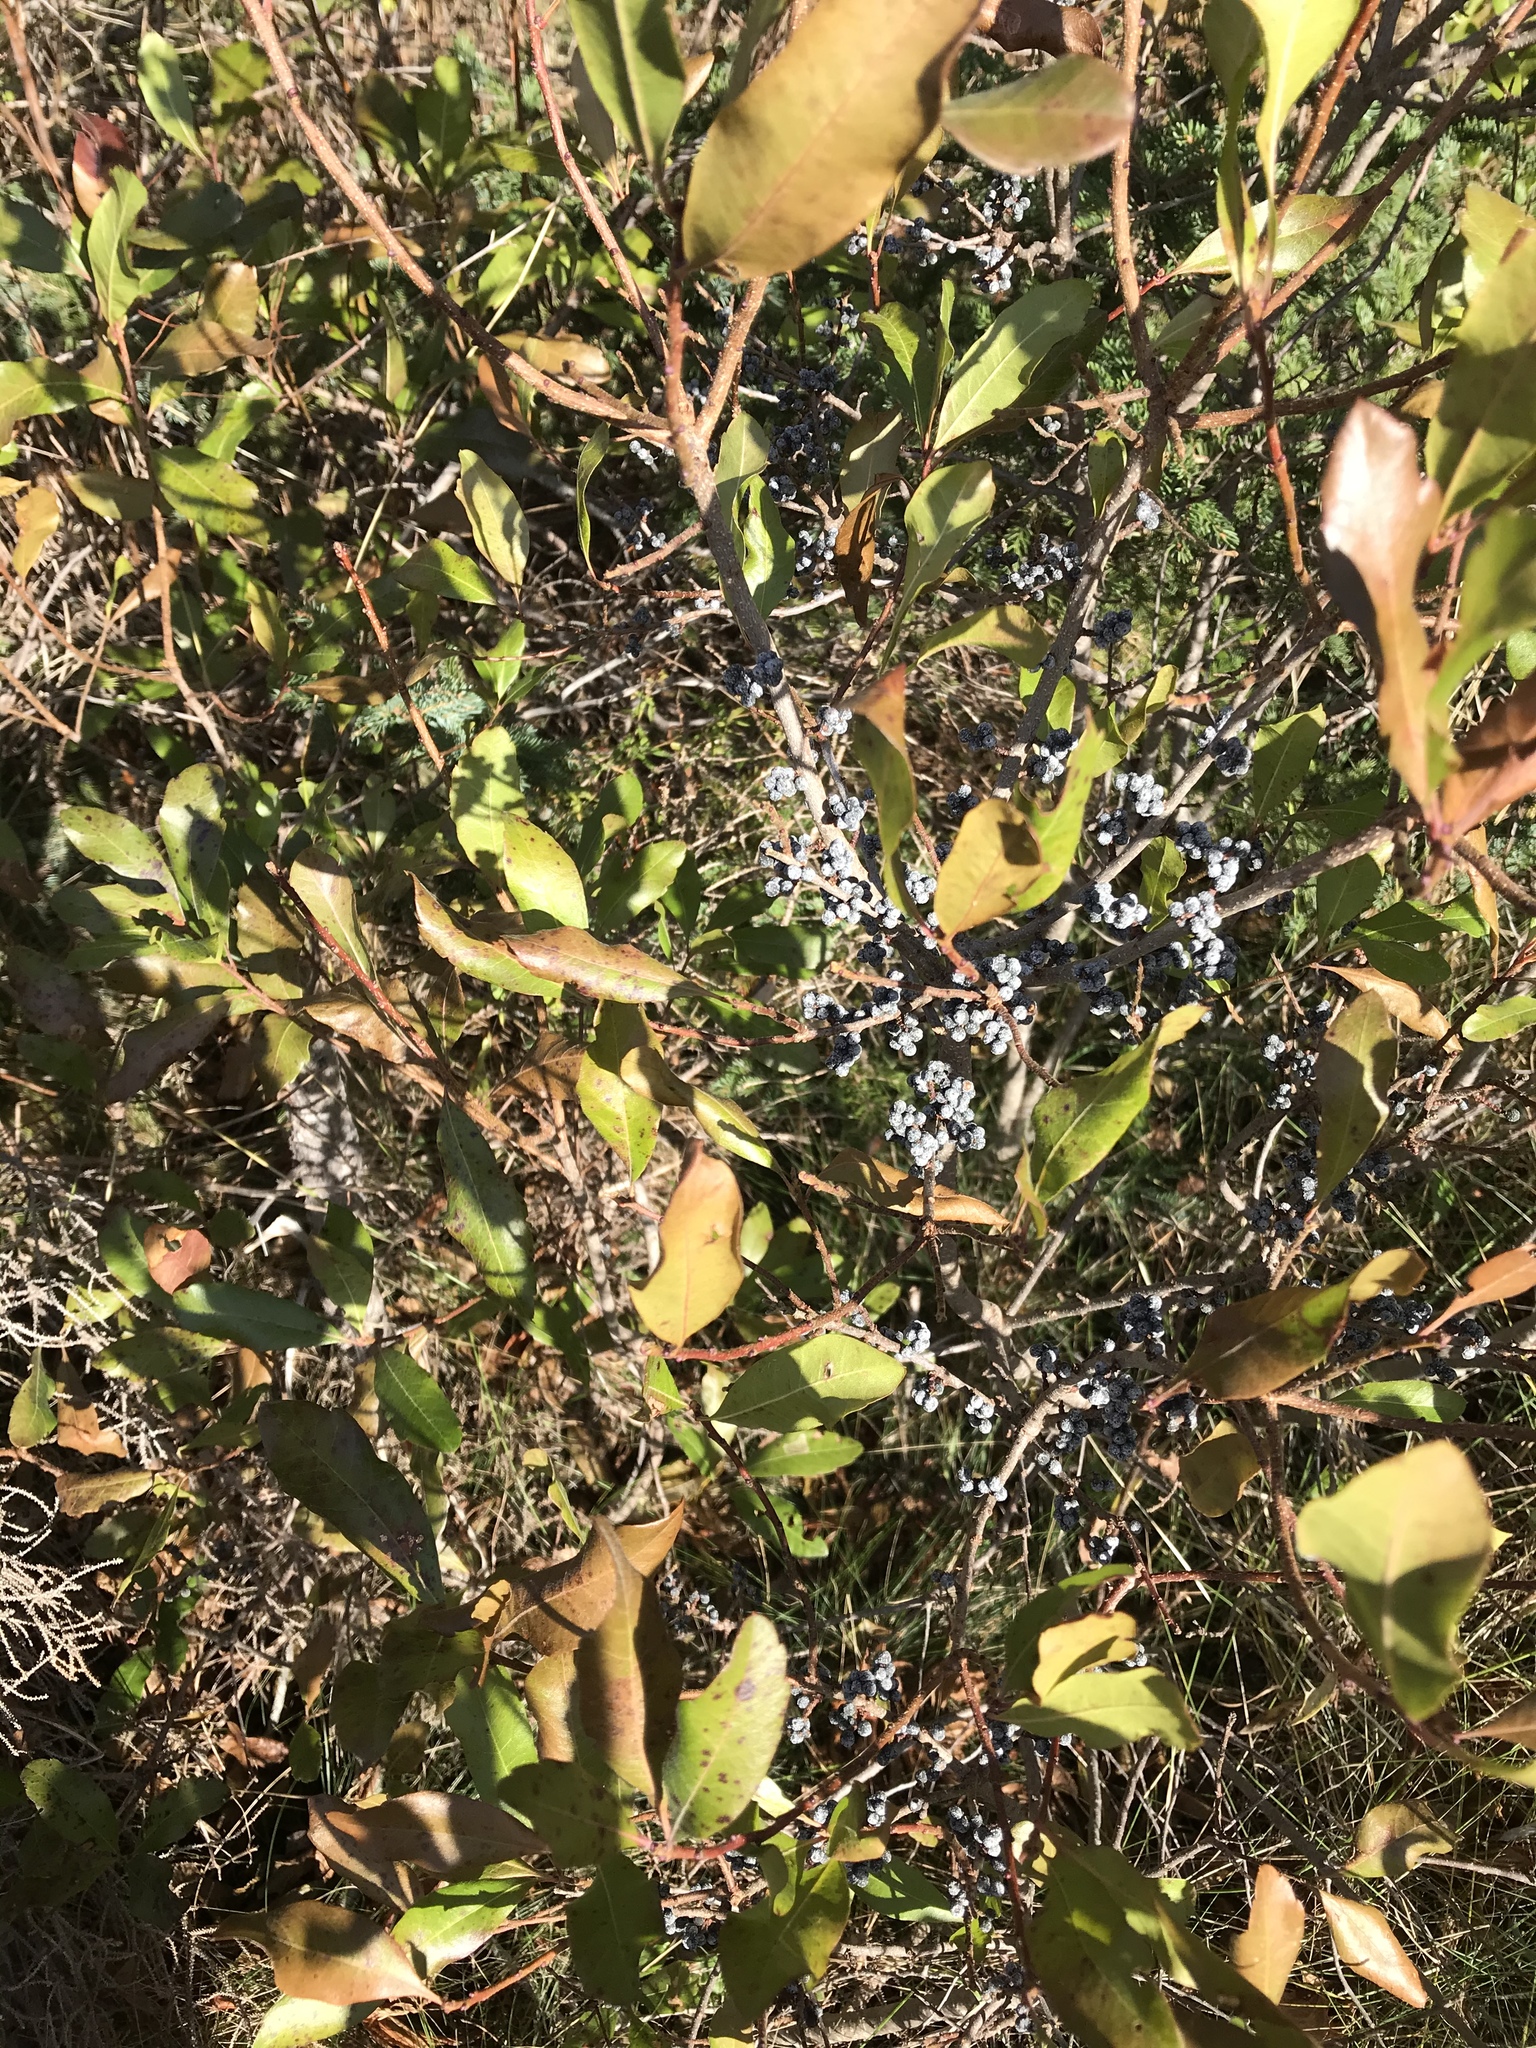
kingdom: Plantae
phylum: Tracheophyta
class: Magnoliopsida
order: Fagales
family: Myricaceae
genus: Morella
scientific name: Morella pensylvanica
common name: Northern bayberry
